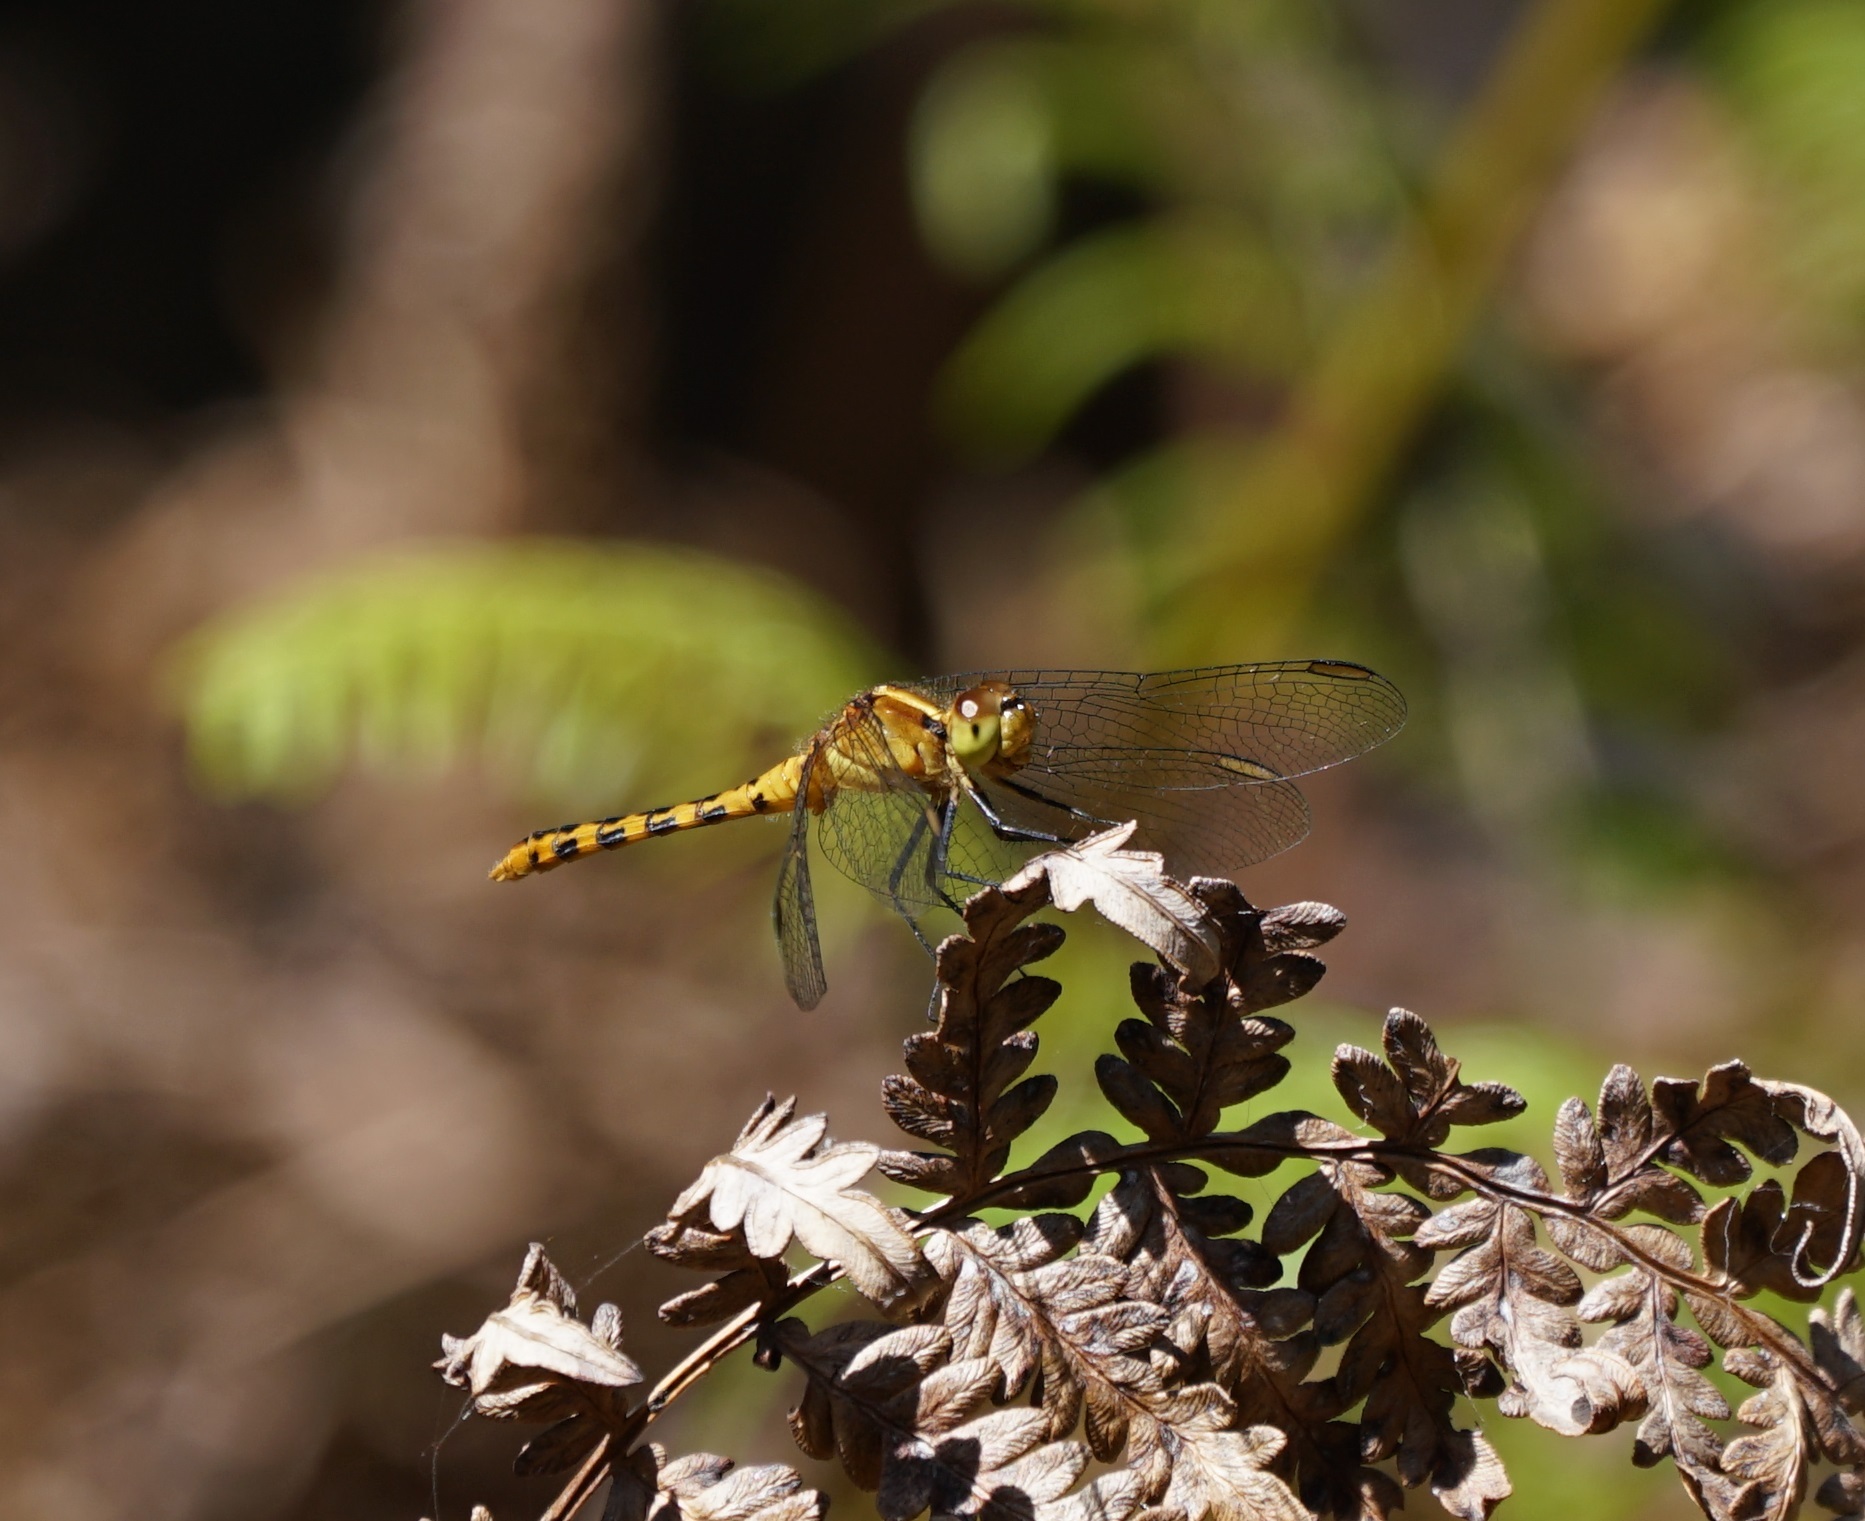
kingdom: Animalia
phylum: Arthropoda
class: Insecta
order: Odonata
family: Libellulidae
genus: Diplacodes
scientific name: Diplacodes melanopsis
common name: Black-faced percher
